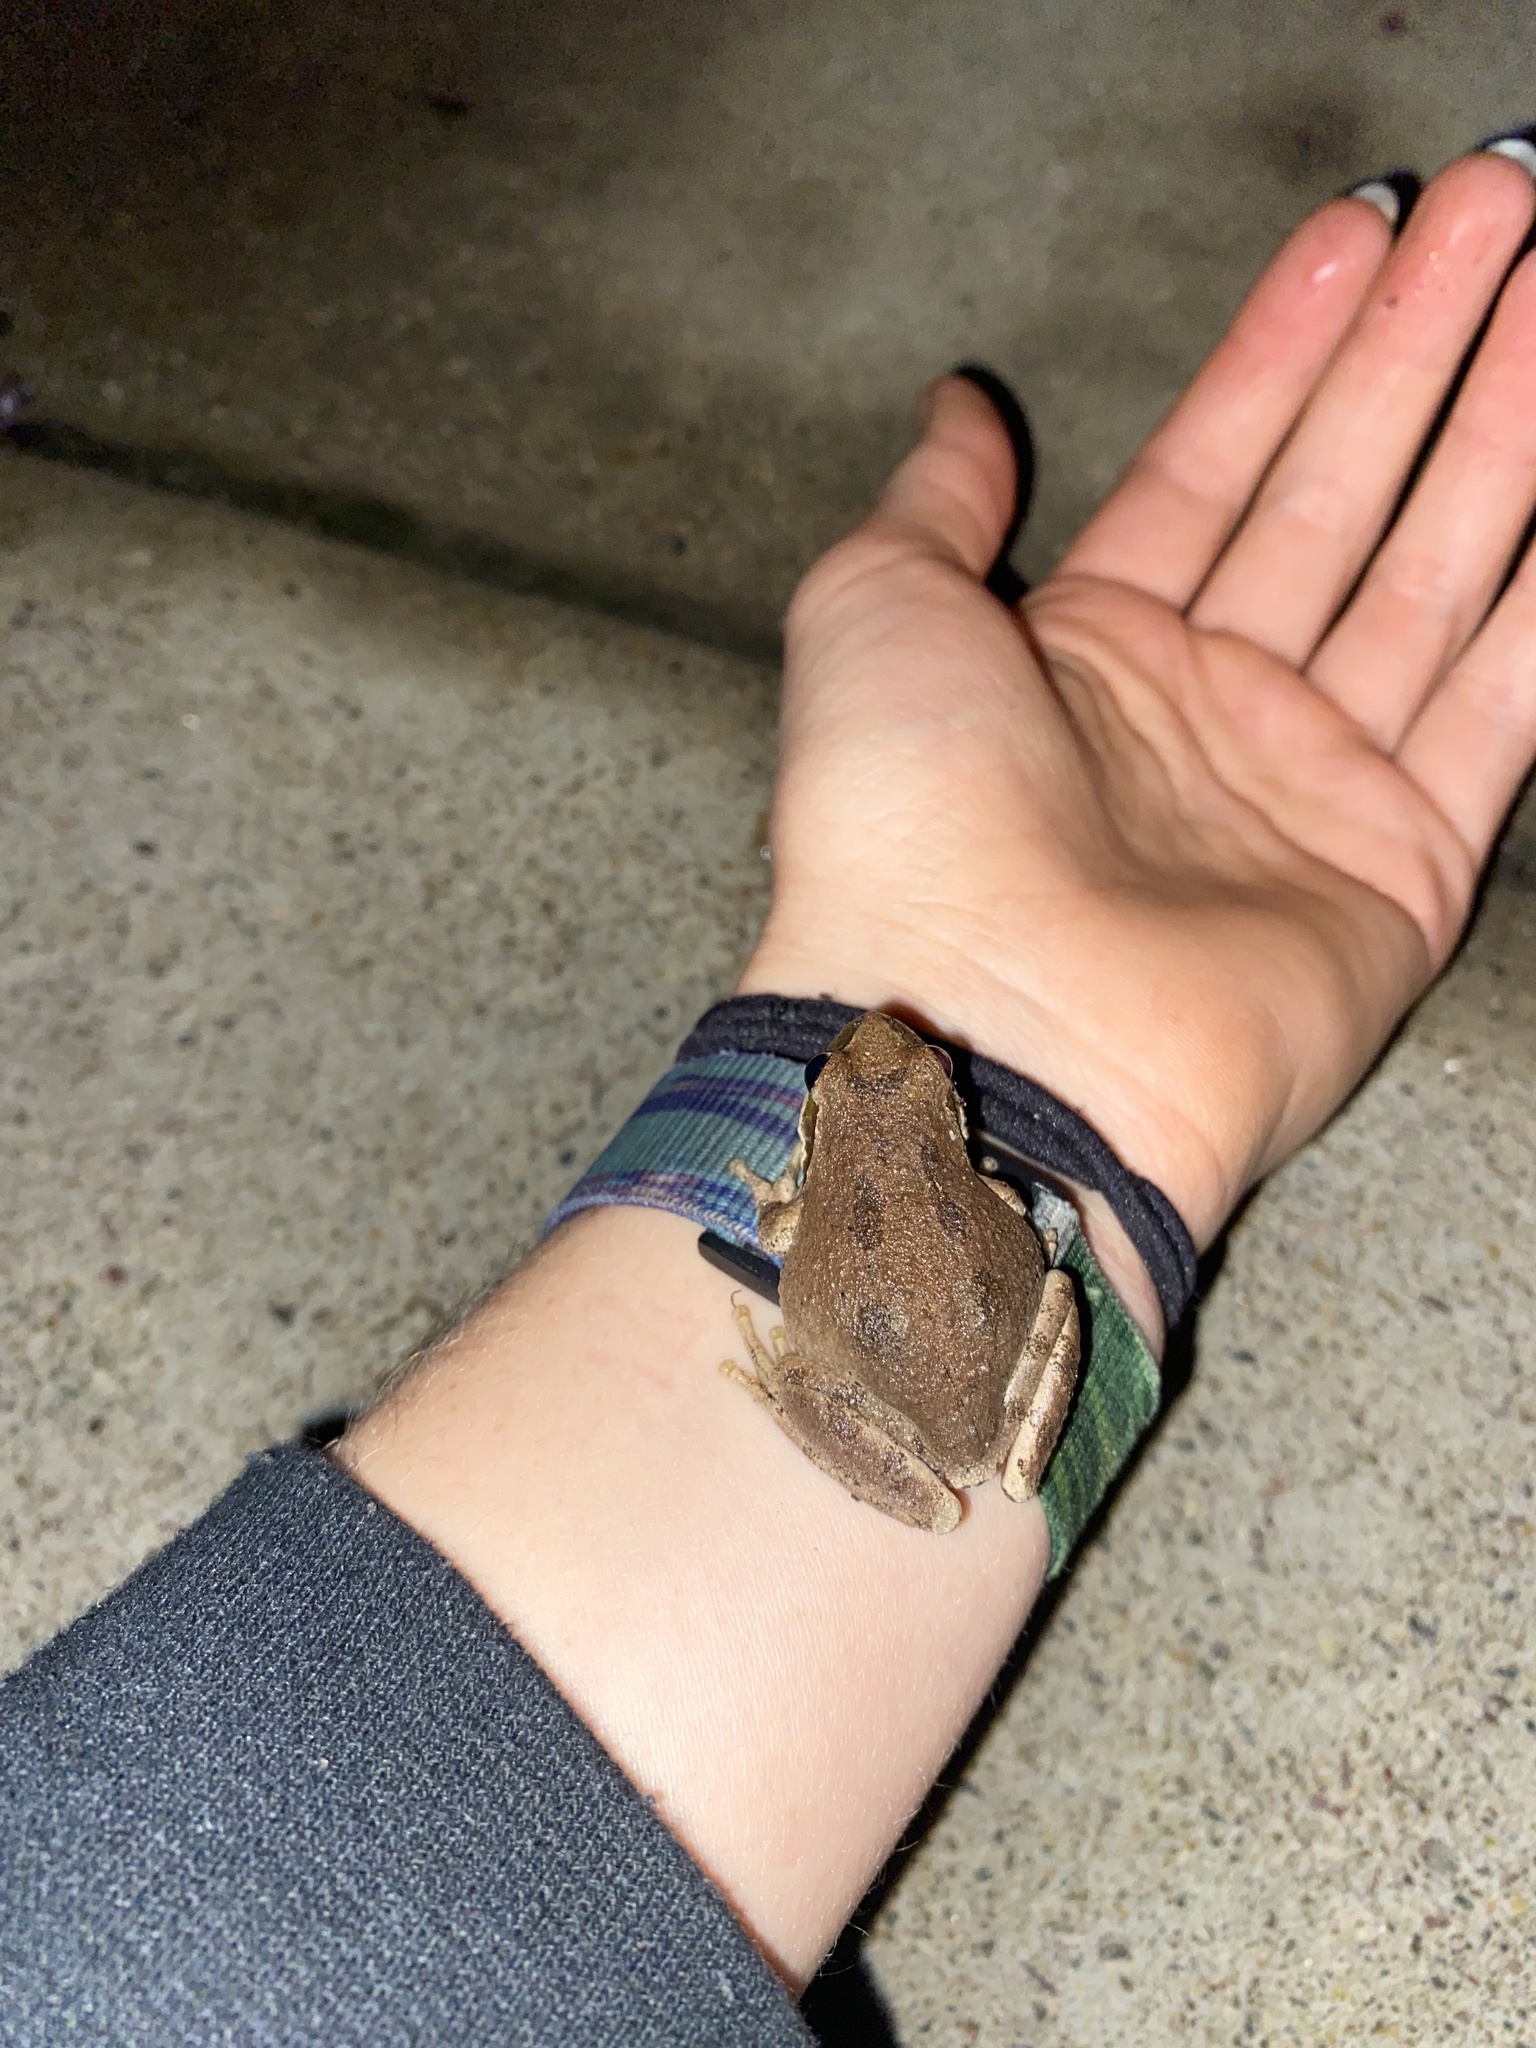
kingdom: Animalia
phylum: Chordata
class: Amphibia
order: Anura
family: Hylidae
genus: Pseudacris
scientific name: Pseudacris regilla
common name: Pacific chorus frog
